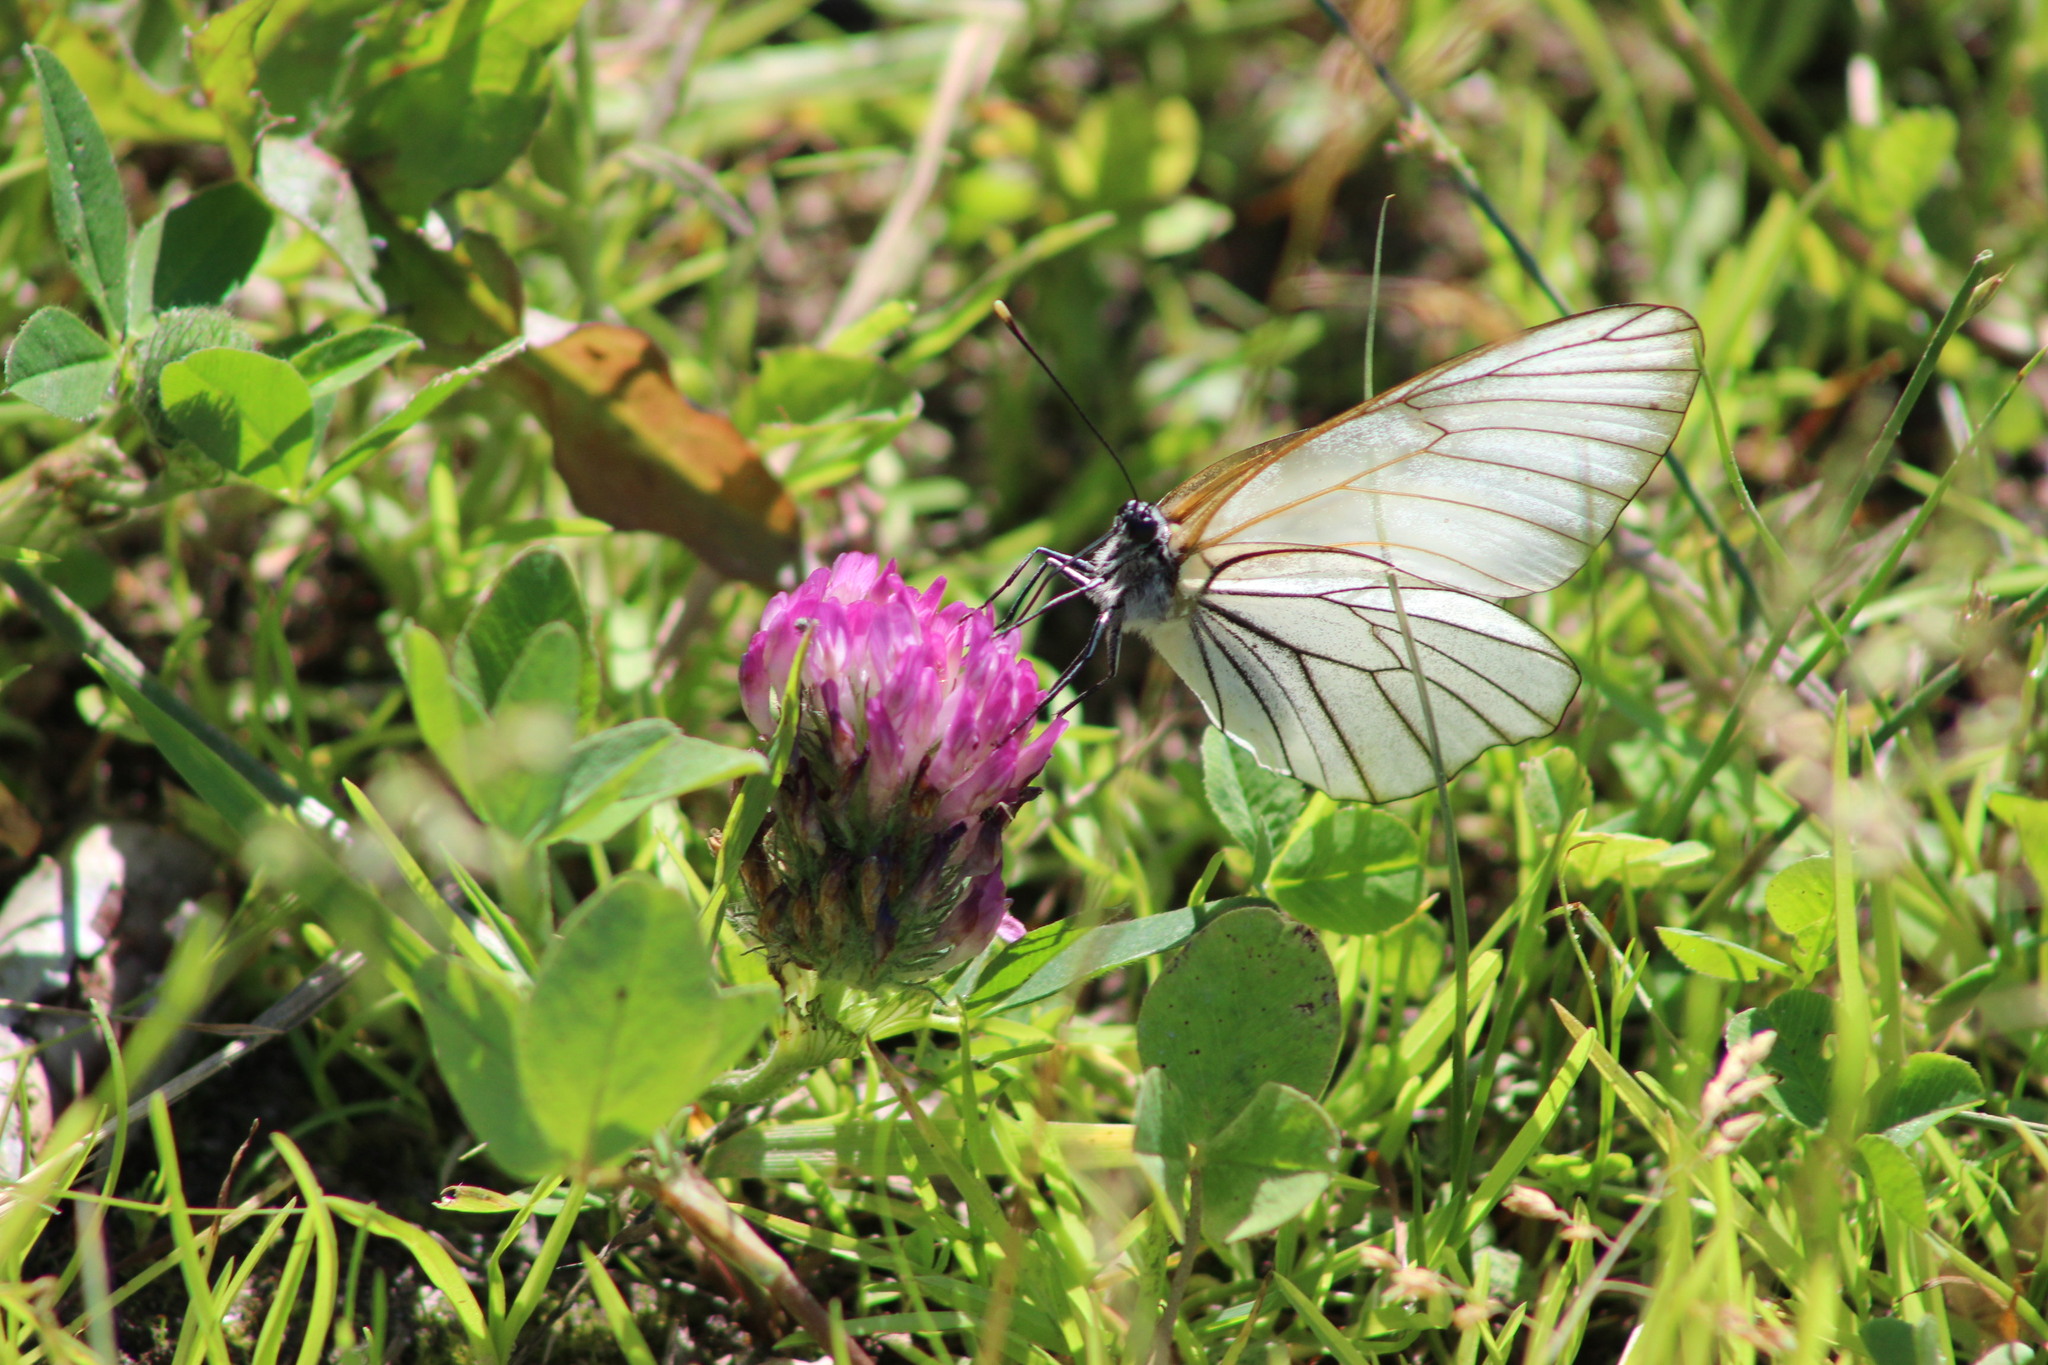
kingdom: Animalia
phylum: Arthropoda
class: Insecta
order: Lepidoptera
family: Pieridae
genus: Aporia
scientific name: Aporia crataegi
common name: Black-veined white
